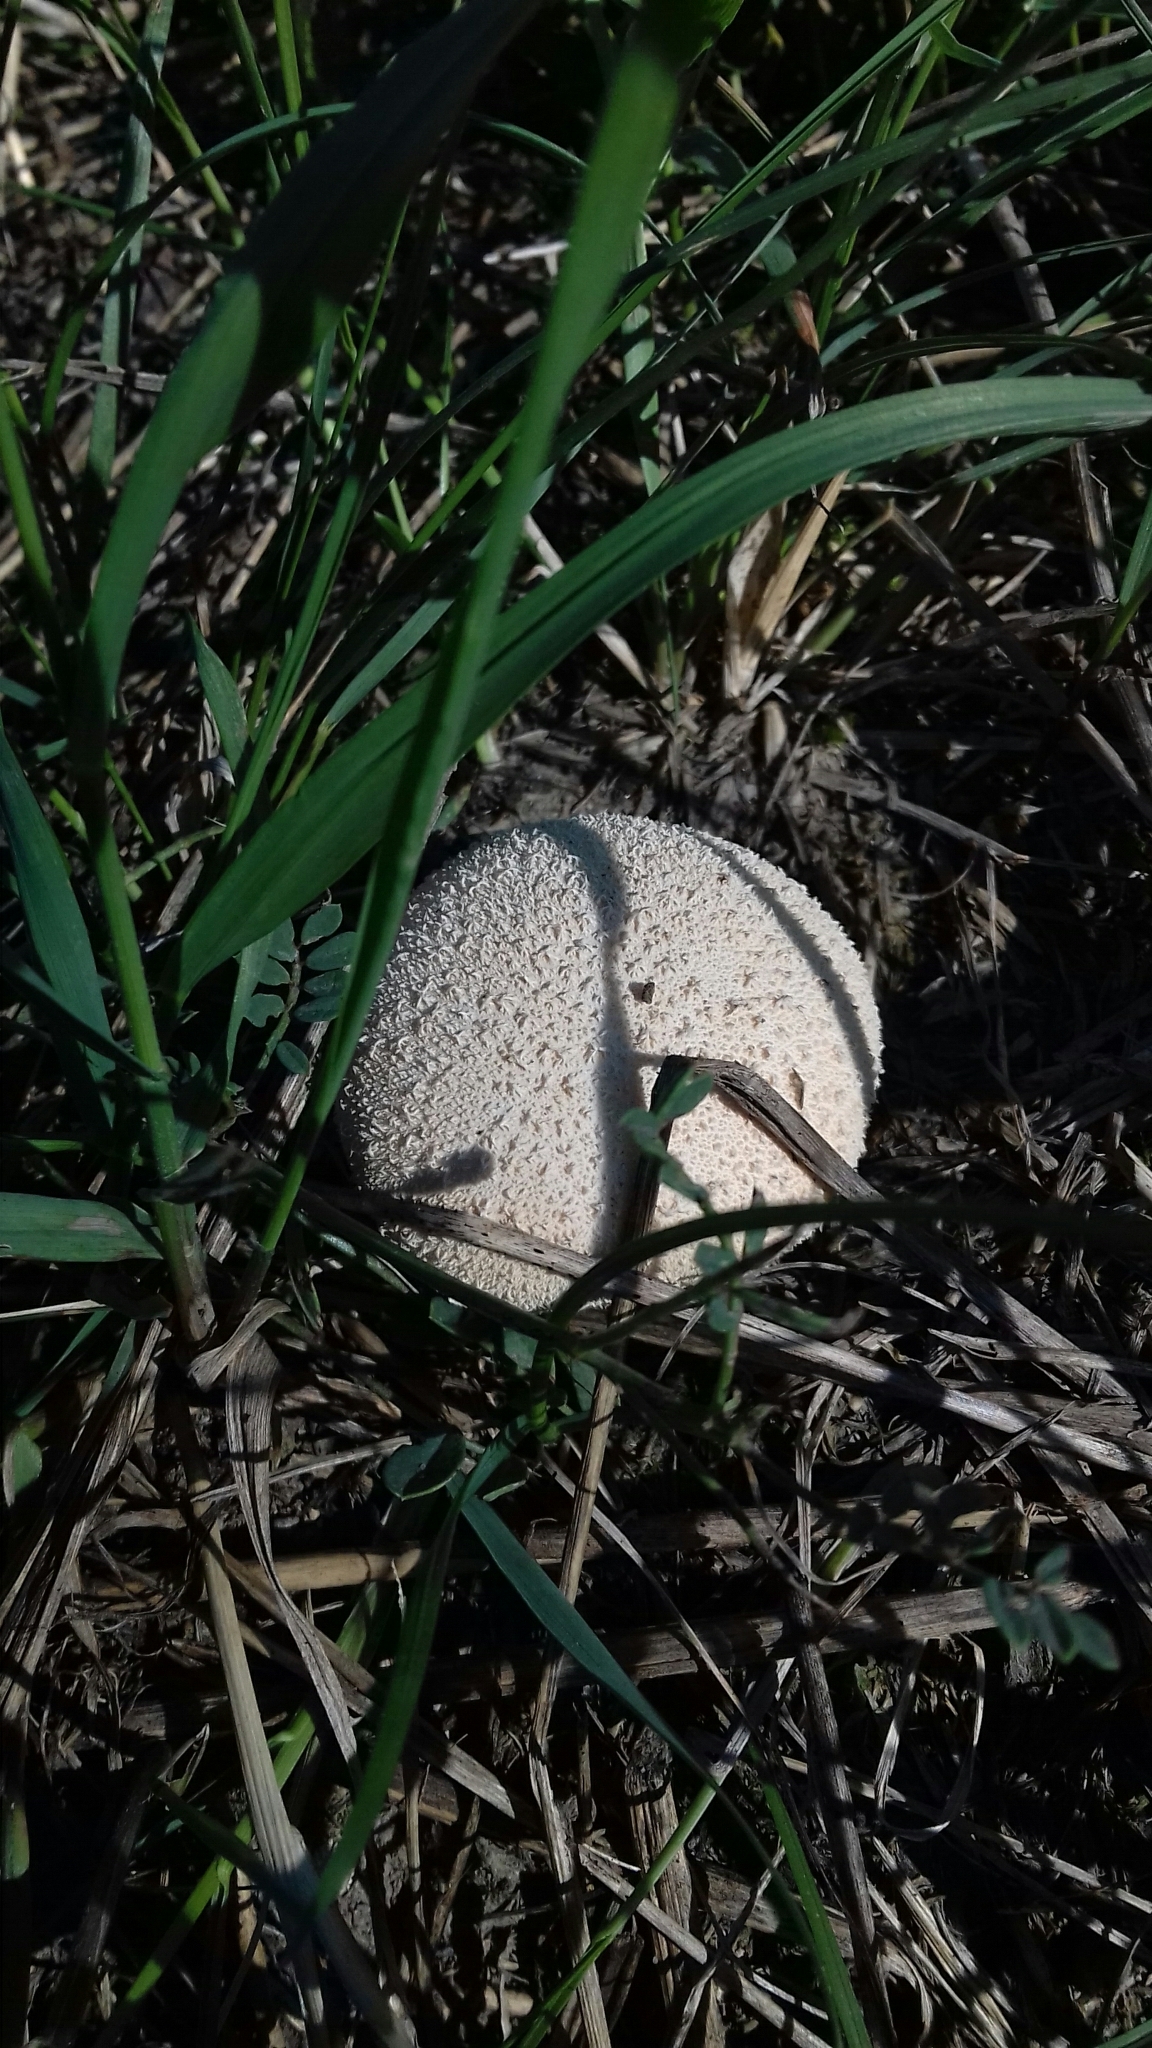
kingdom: Fungi
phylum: Basidiomycota
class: Agaricomycetes
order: Agaricales
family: Lycoperdaceae
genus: Lycoperdon
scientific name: Lycoperdon perlatum
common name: Common puffball
